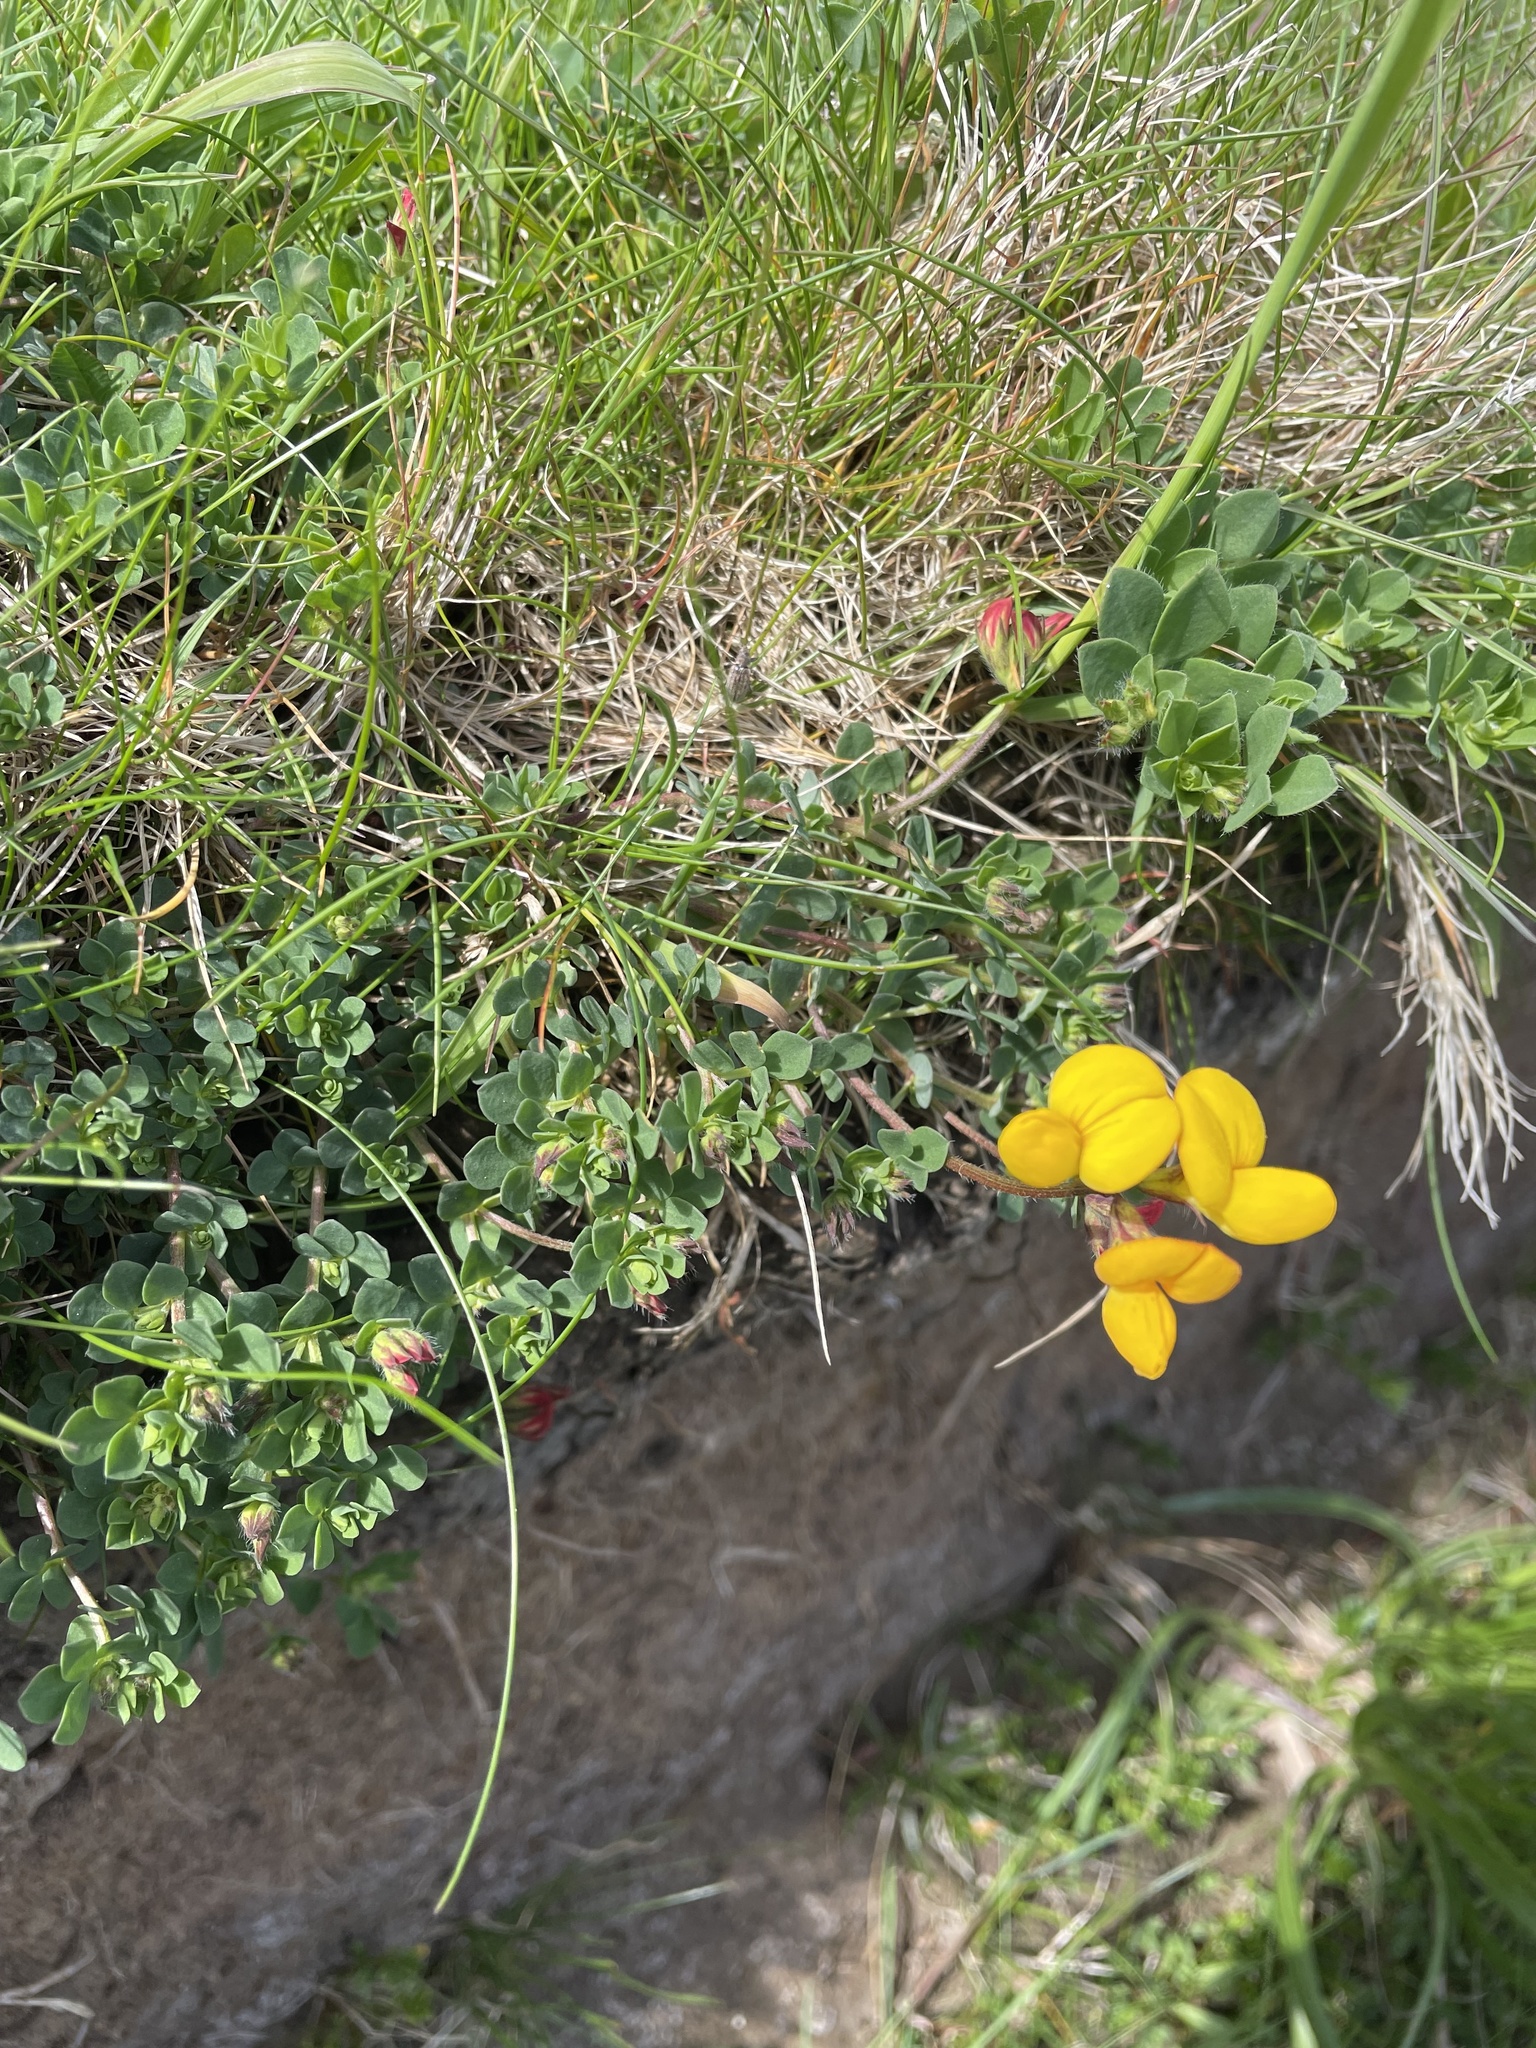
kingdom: Plantae
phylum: Tracheophyta
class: Magnoliopsida
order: Fabales
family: Fabaceae
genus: Lotus
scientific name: Lotus corniculatus
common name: Common bird's-foot-trefoil
